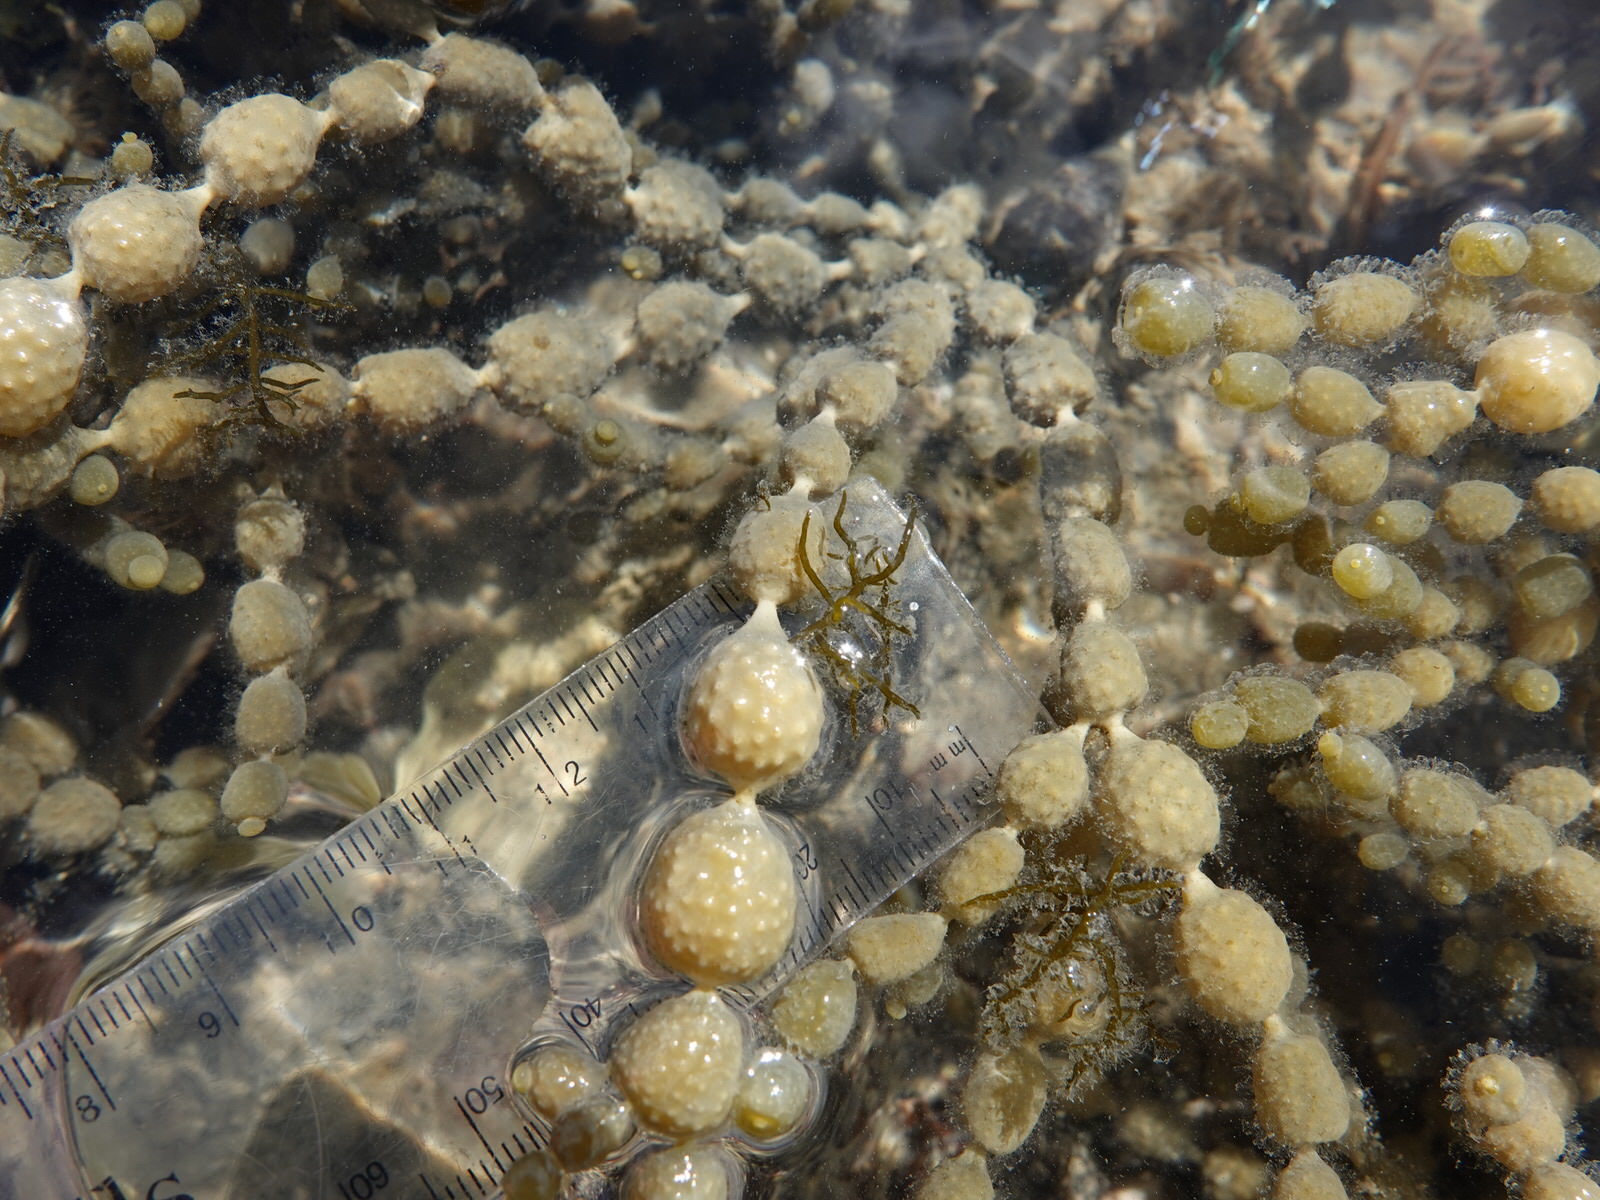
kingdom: Chromista
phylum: Ochrophyta
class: Phaeophyceae
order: Fucales
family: Notheiaceae
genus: Notheia
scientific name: Notheia anomala
